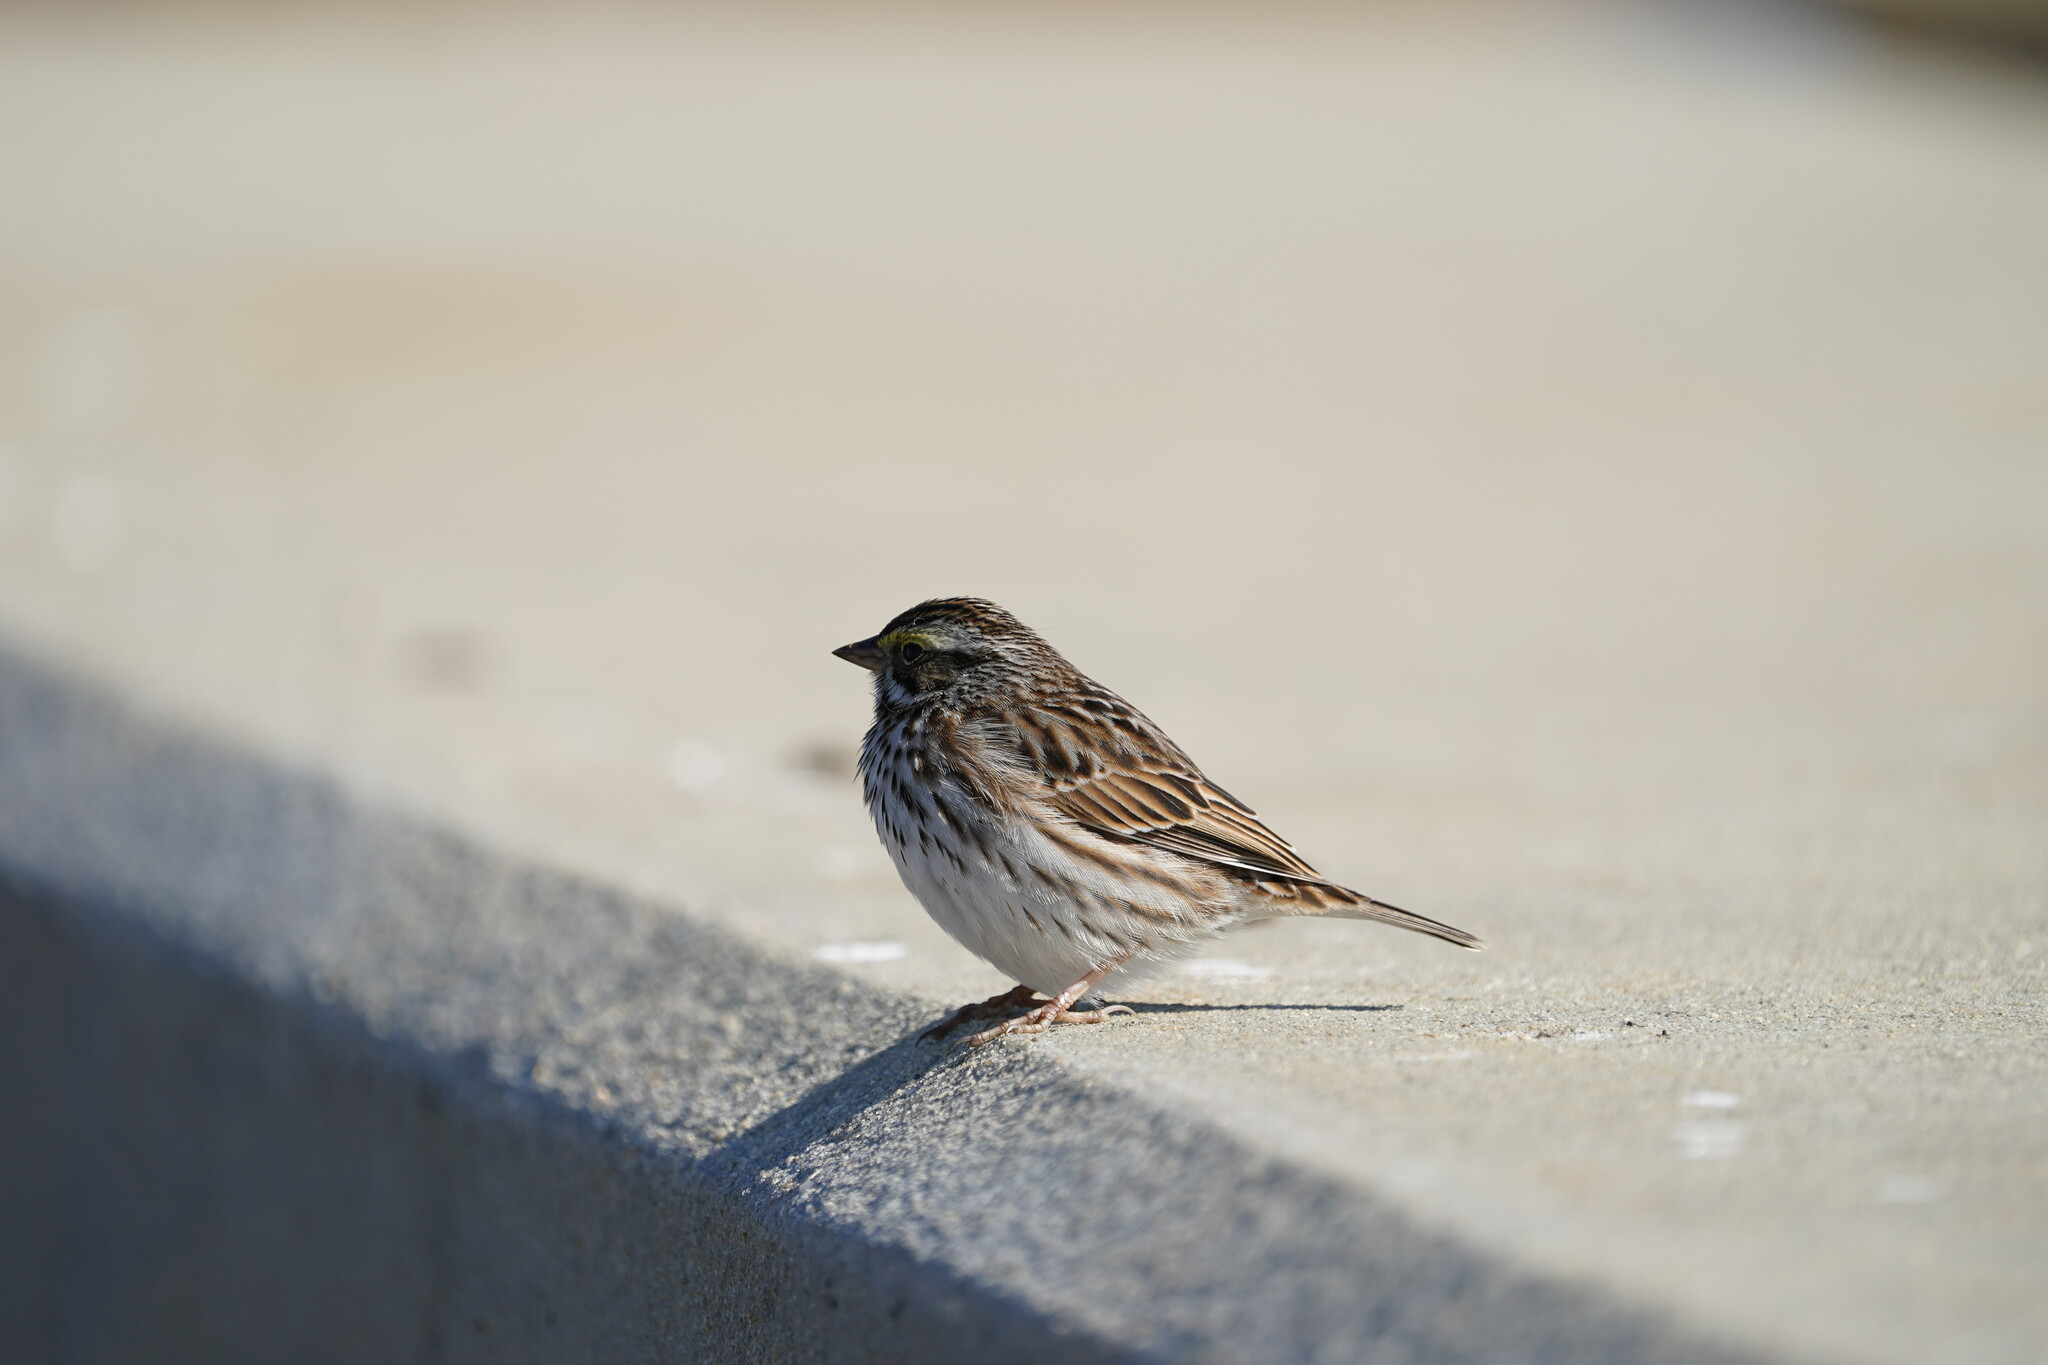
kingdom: Animalia
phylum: Chordata
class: Aves
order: Passeriformes
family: Passerellidae
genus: Passerculus
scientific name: Passerculus sandwichensis
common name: Savannah sparrow
